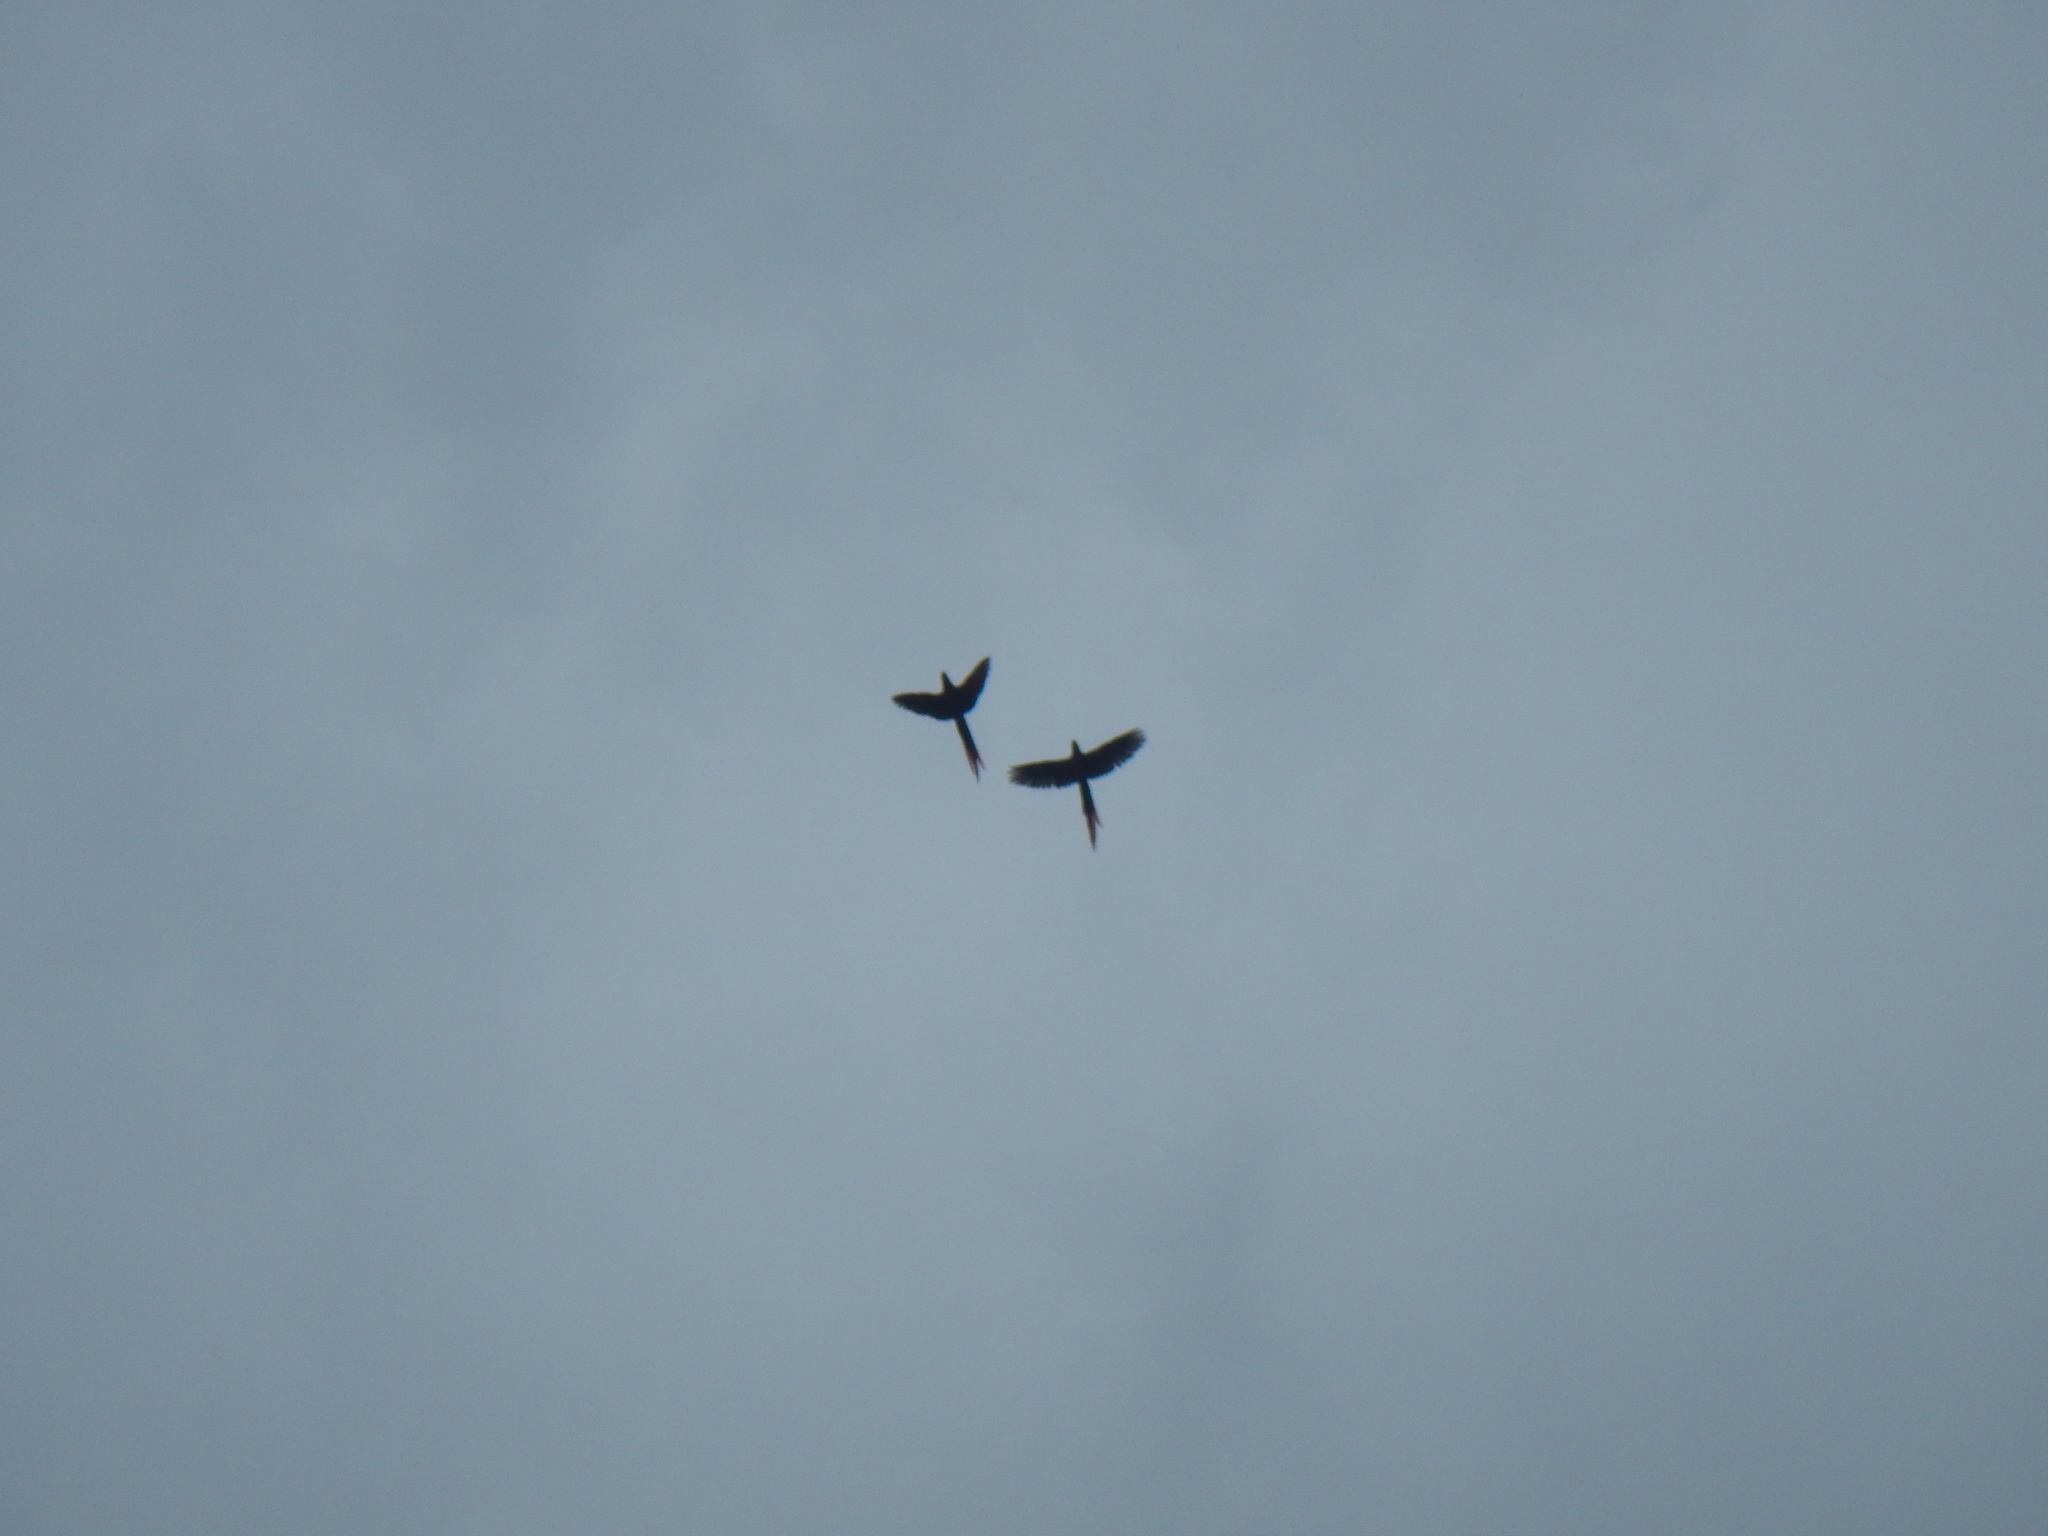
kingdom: Animalia
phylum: Chordata
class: Aves
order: Psittaciformes
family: Psittacidae
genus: Ara
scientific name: Ara macao
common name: Scarlet macaw
